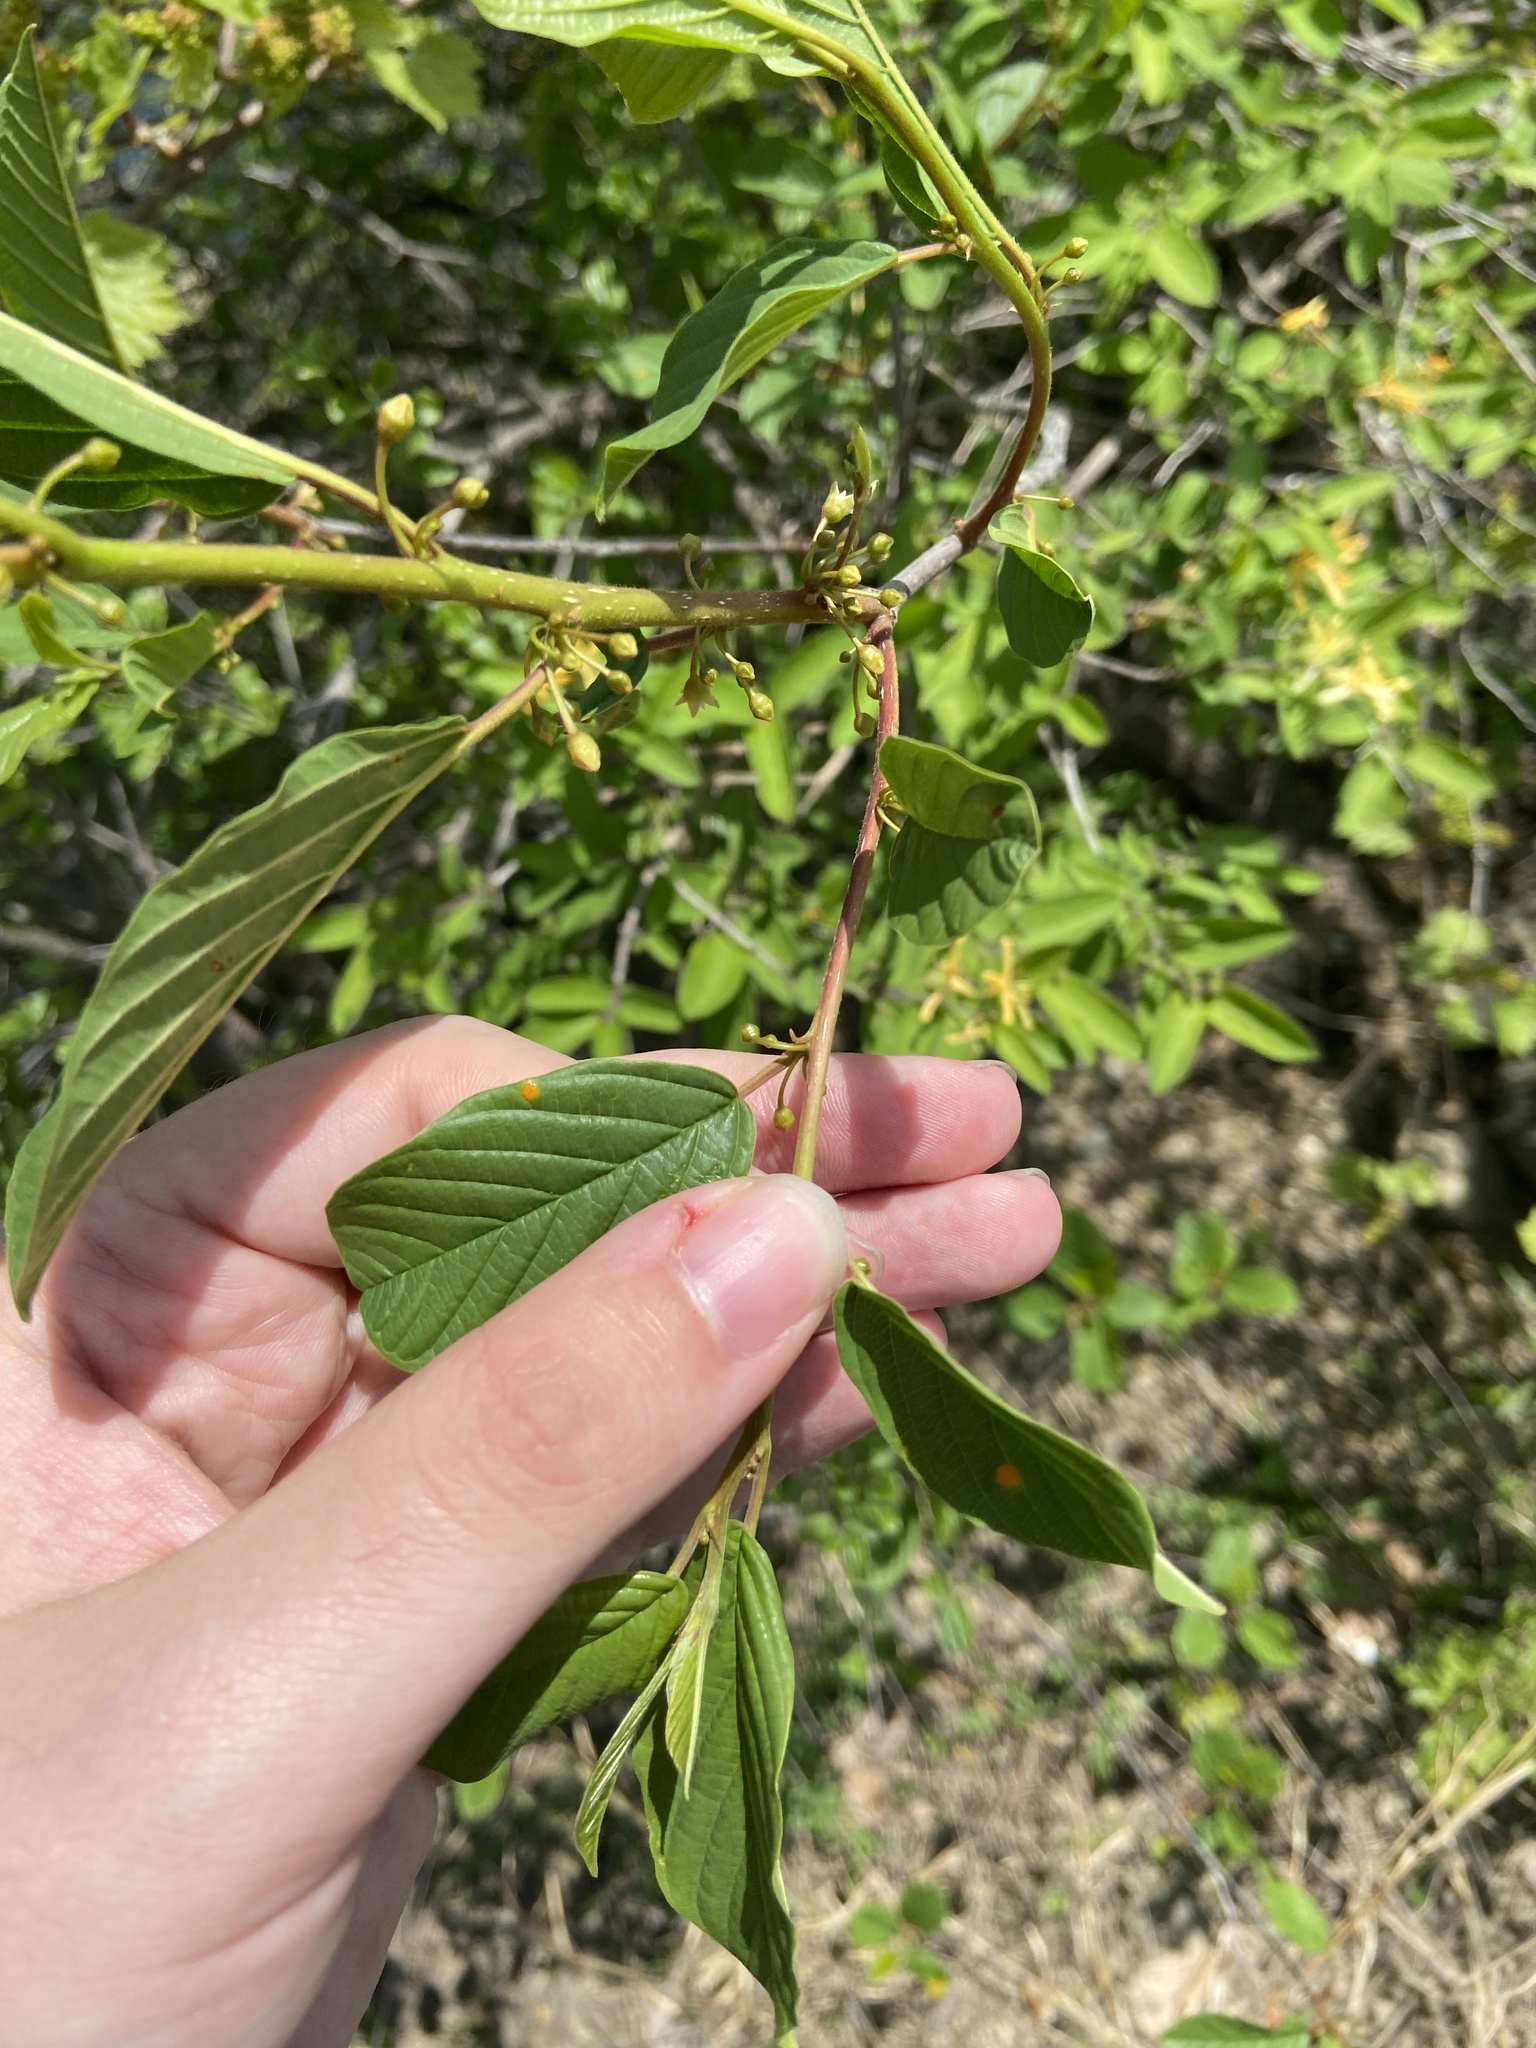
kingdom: Plantae
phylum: Tracheophyta
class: Magnoliopsida
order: Rosales
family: Rhamnaceae
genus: Frangula
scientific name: Frangula alnus
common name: Alder buckthorn
